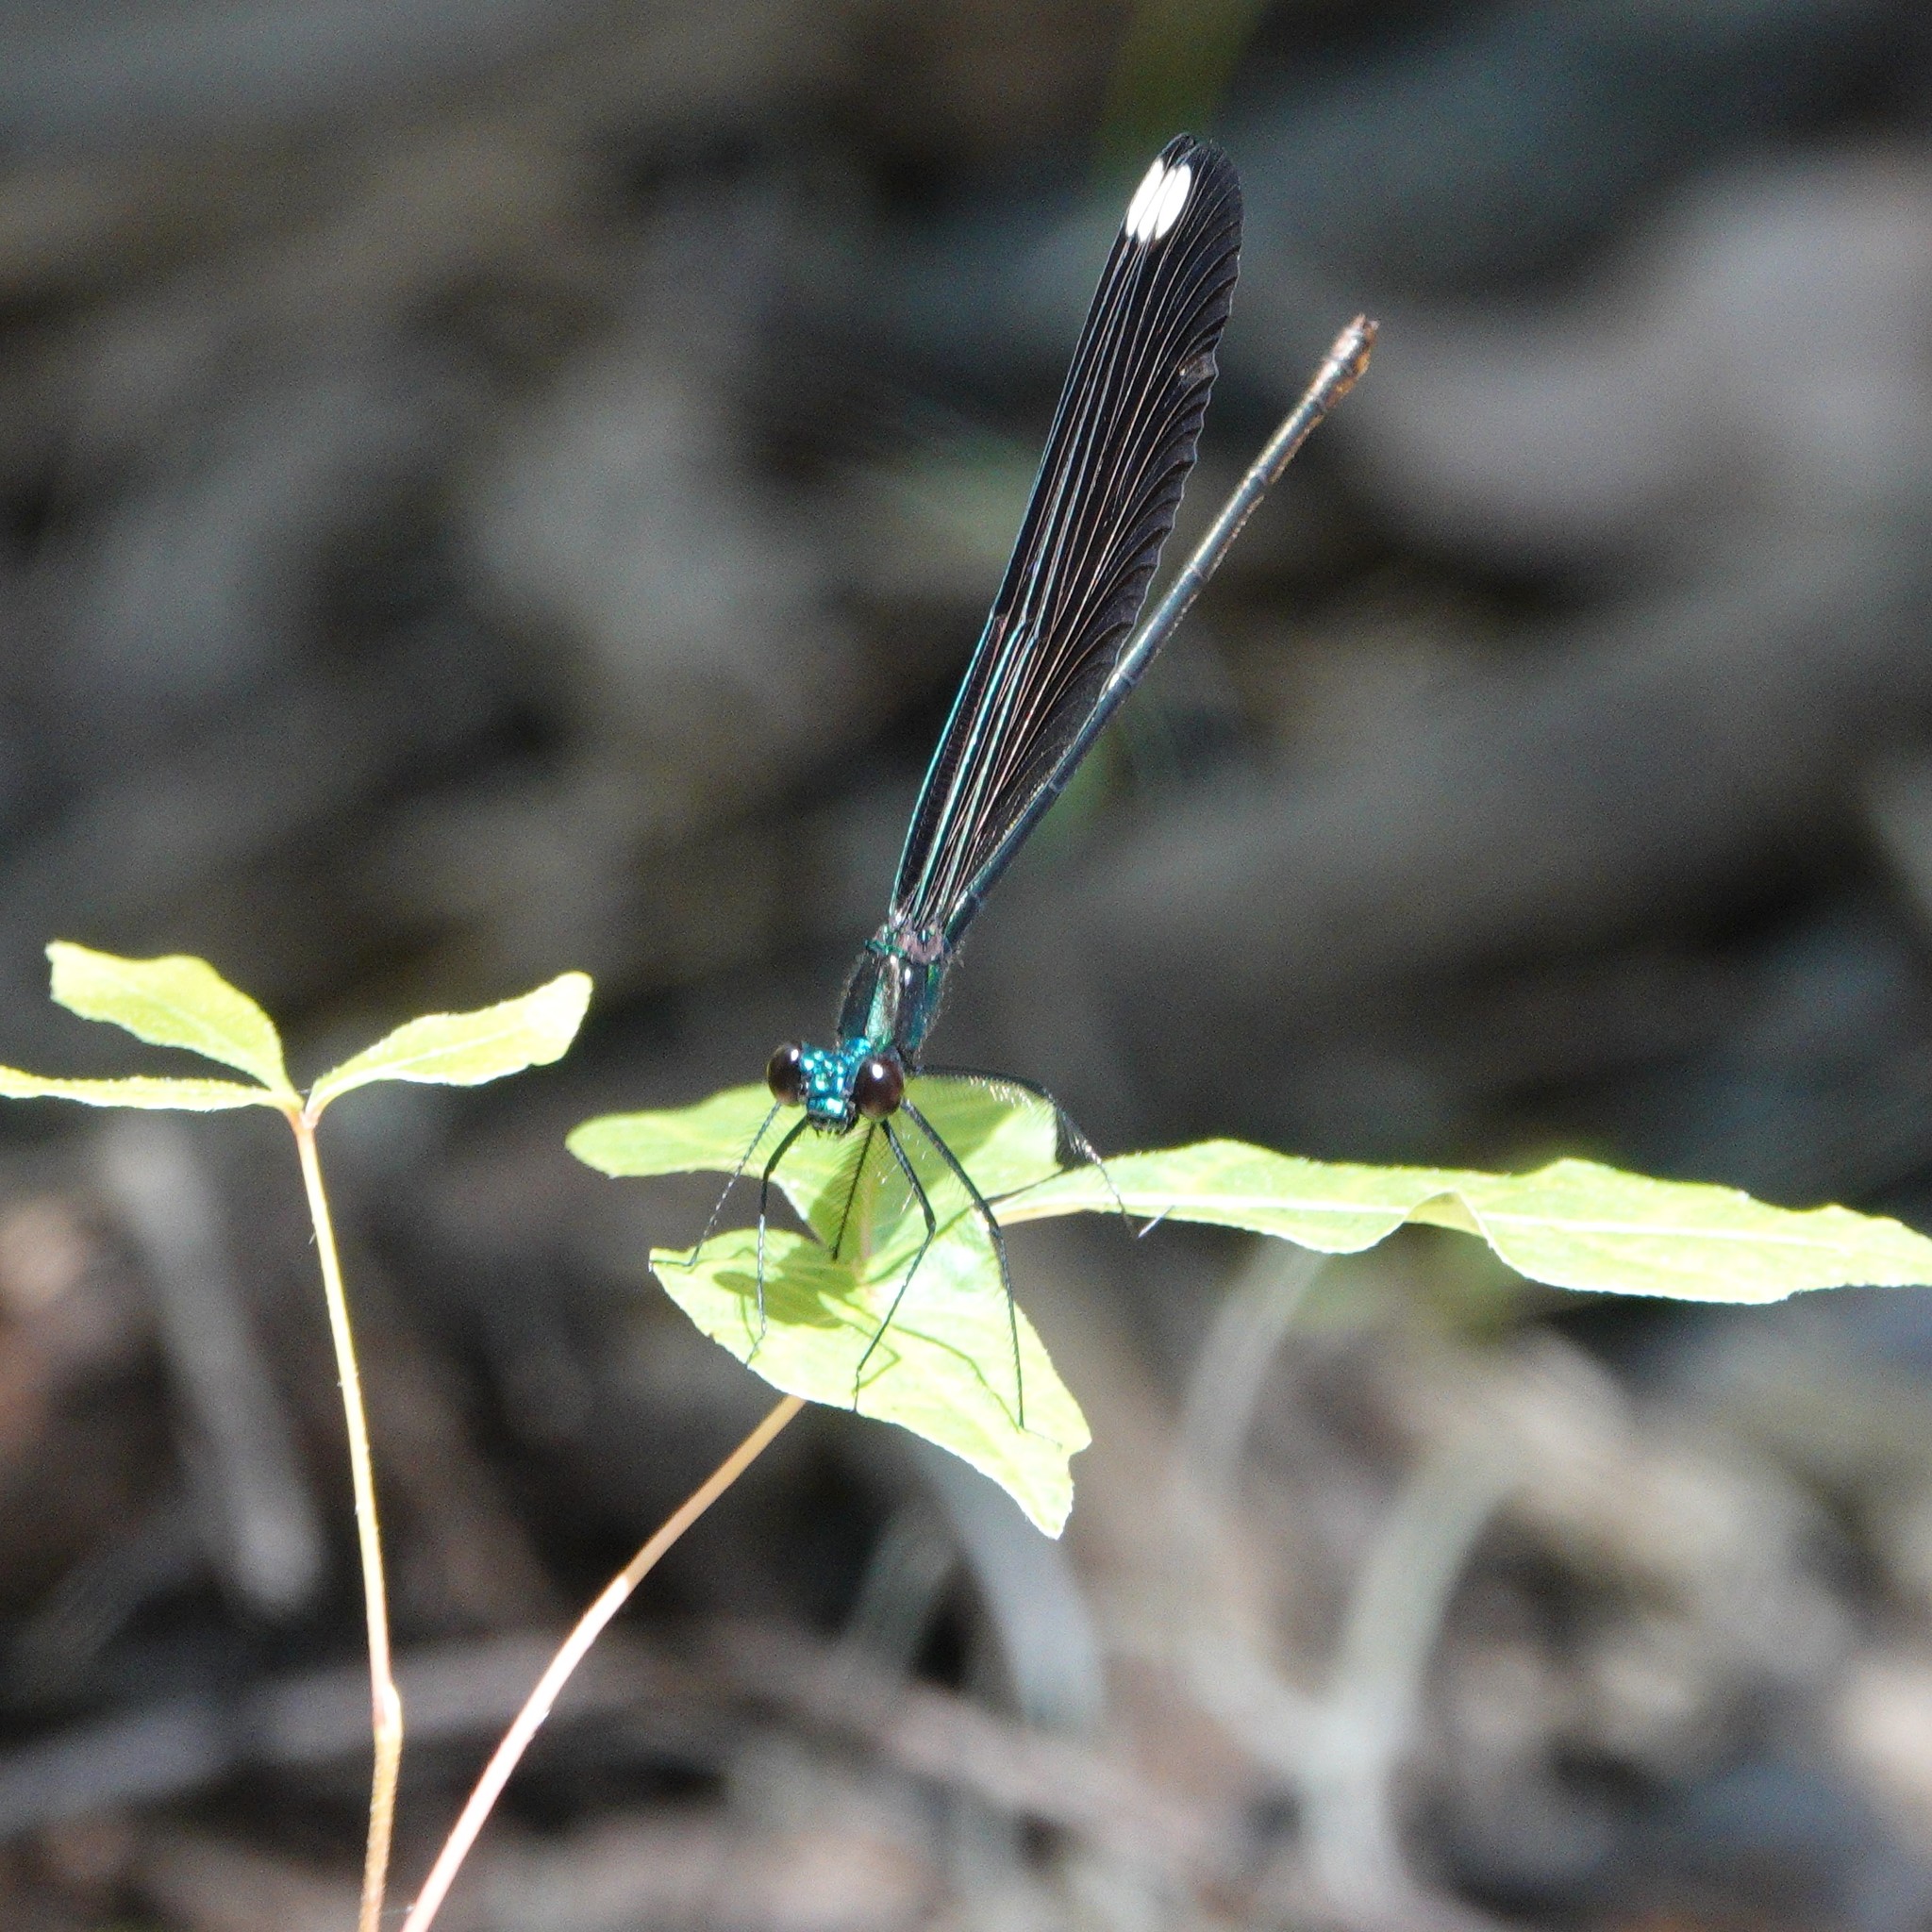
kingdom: Animalia
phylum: Arthropoda
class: Insecta
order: Odonata
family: Calopterygidae
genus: Calopteryx
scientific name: Calopteryx maculata
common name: Ebony jewelwing
